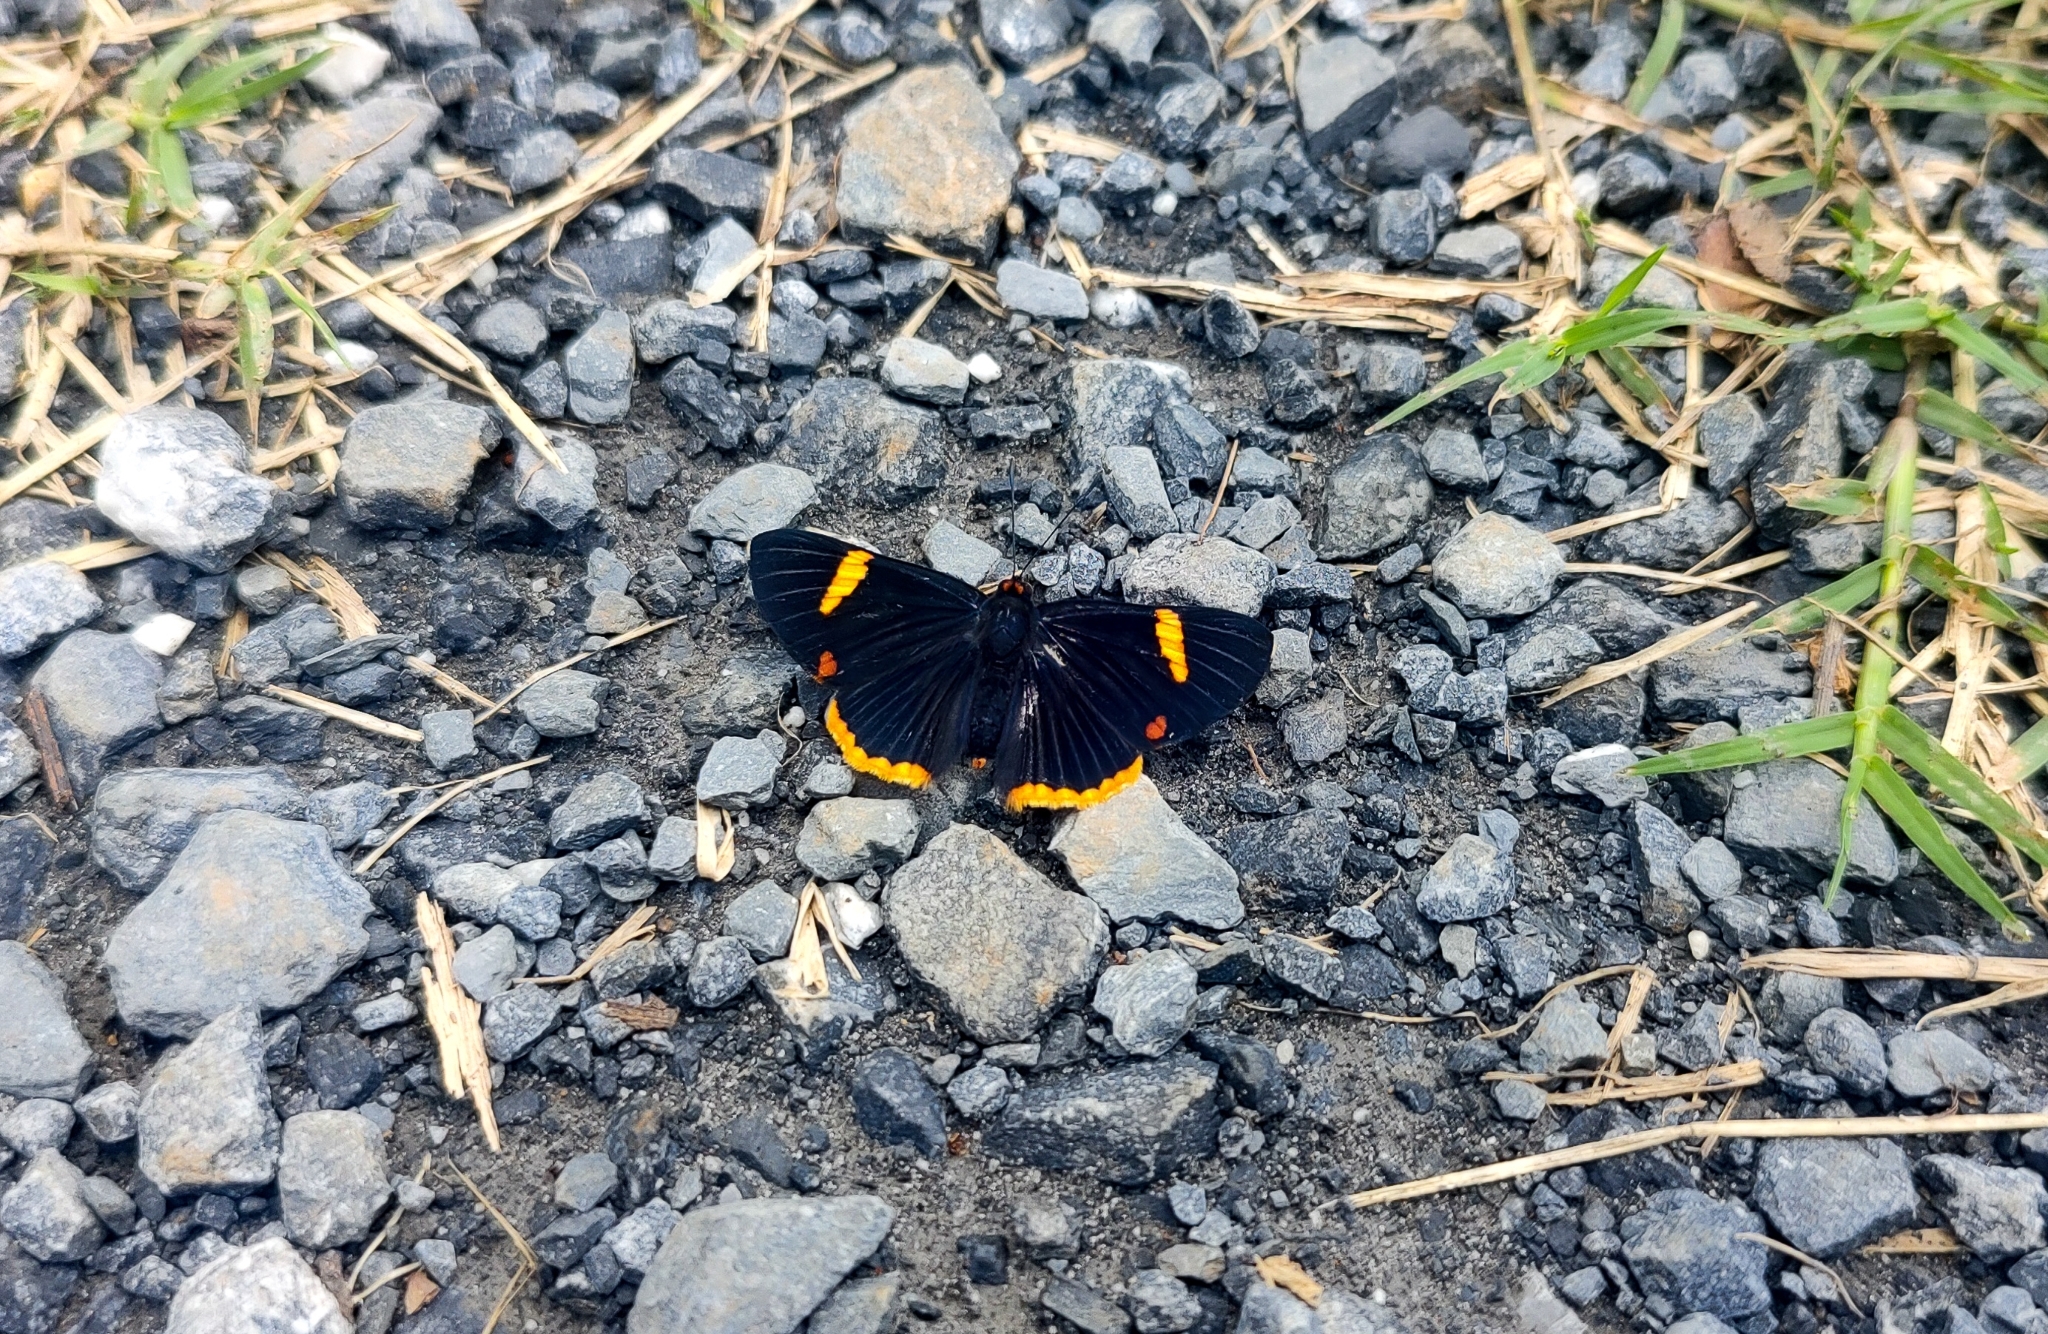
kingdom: Animalia
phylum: Arthropoda
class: Insecta
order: Lepidoptera
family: Riodinidae
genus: Riodina
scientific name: Riodina lycisca
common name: Lycisca metalmark
